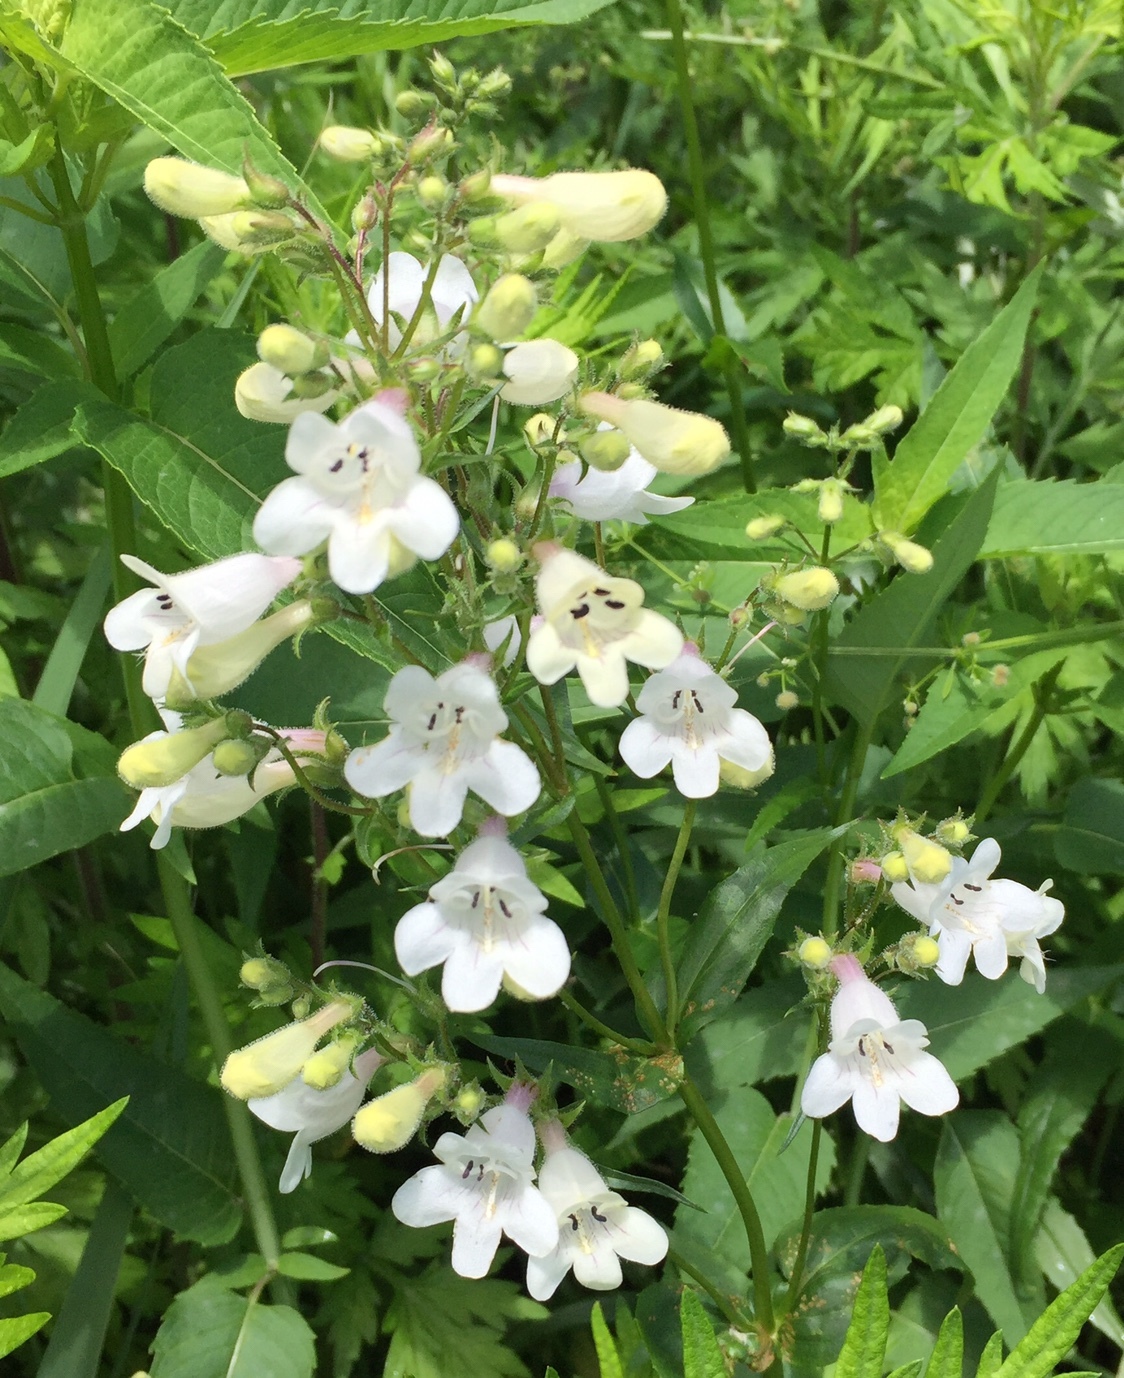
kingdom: Plantae
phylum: Tracheophyta
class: Magnoliopsida
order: Lamiales
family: Plantaginaceae
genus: Penstemon
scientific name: Penstemon digitalis
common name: Foxglove beardtongue
